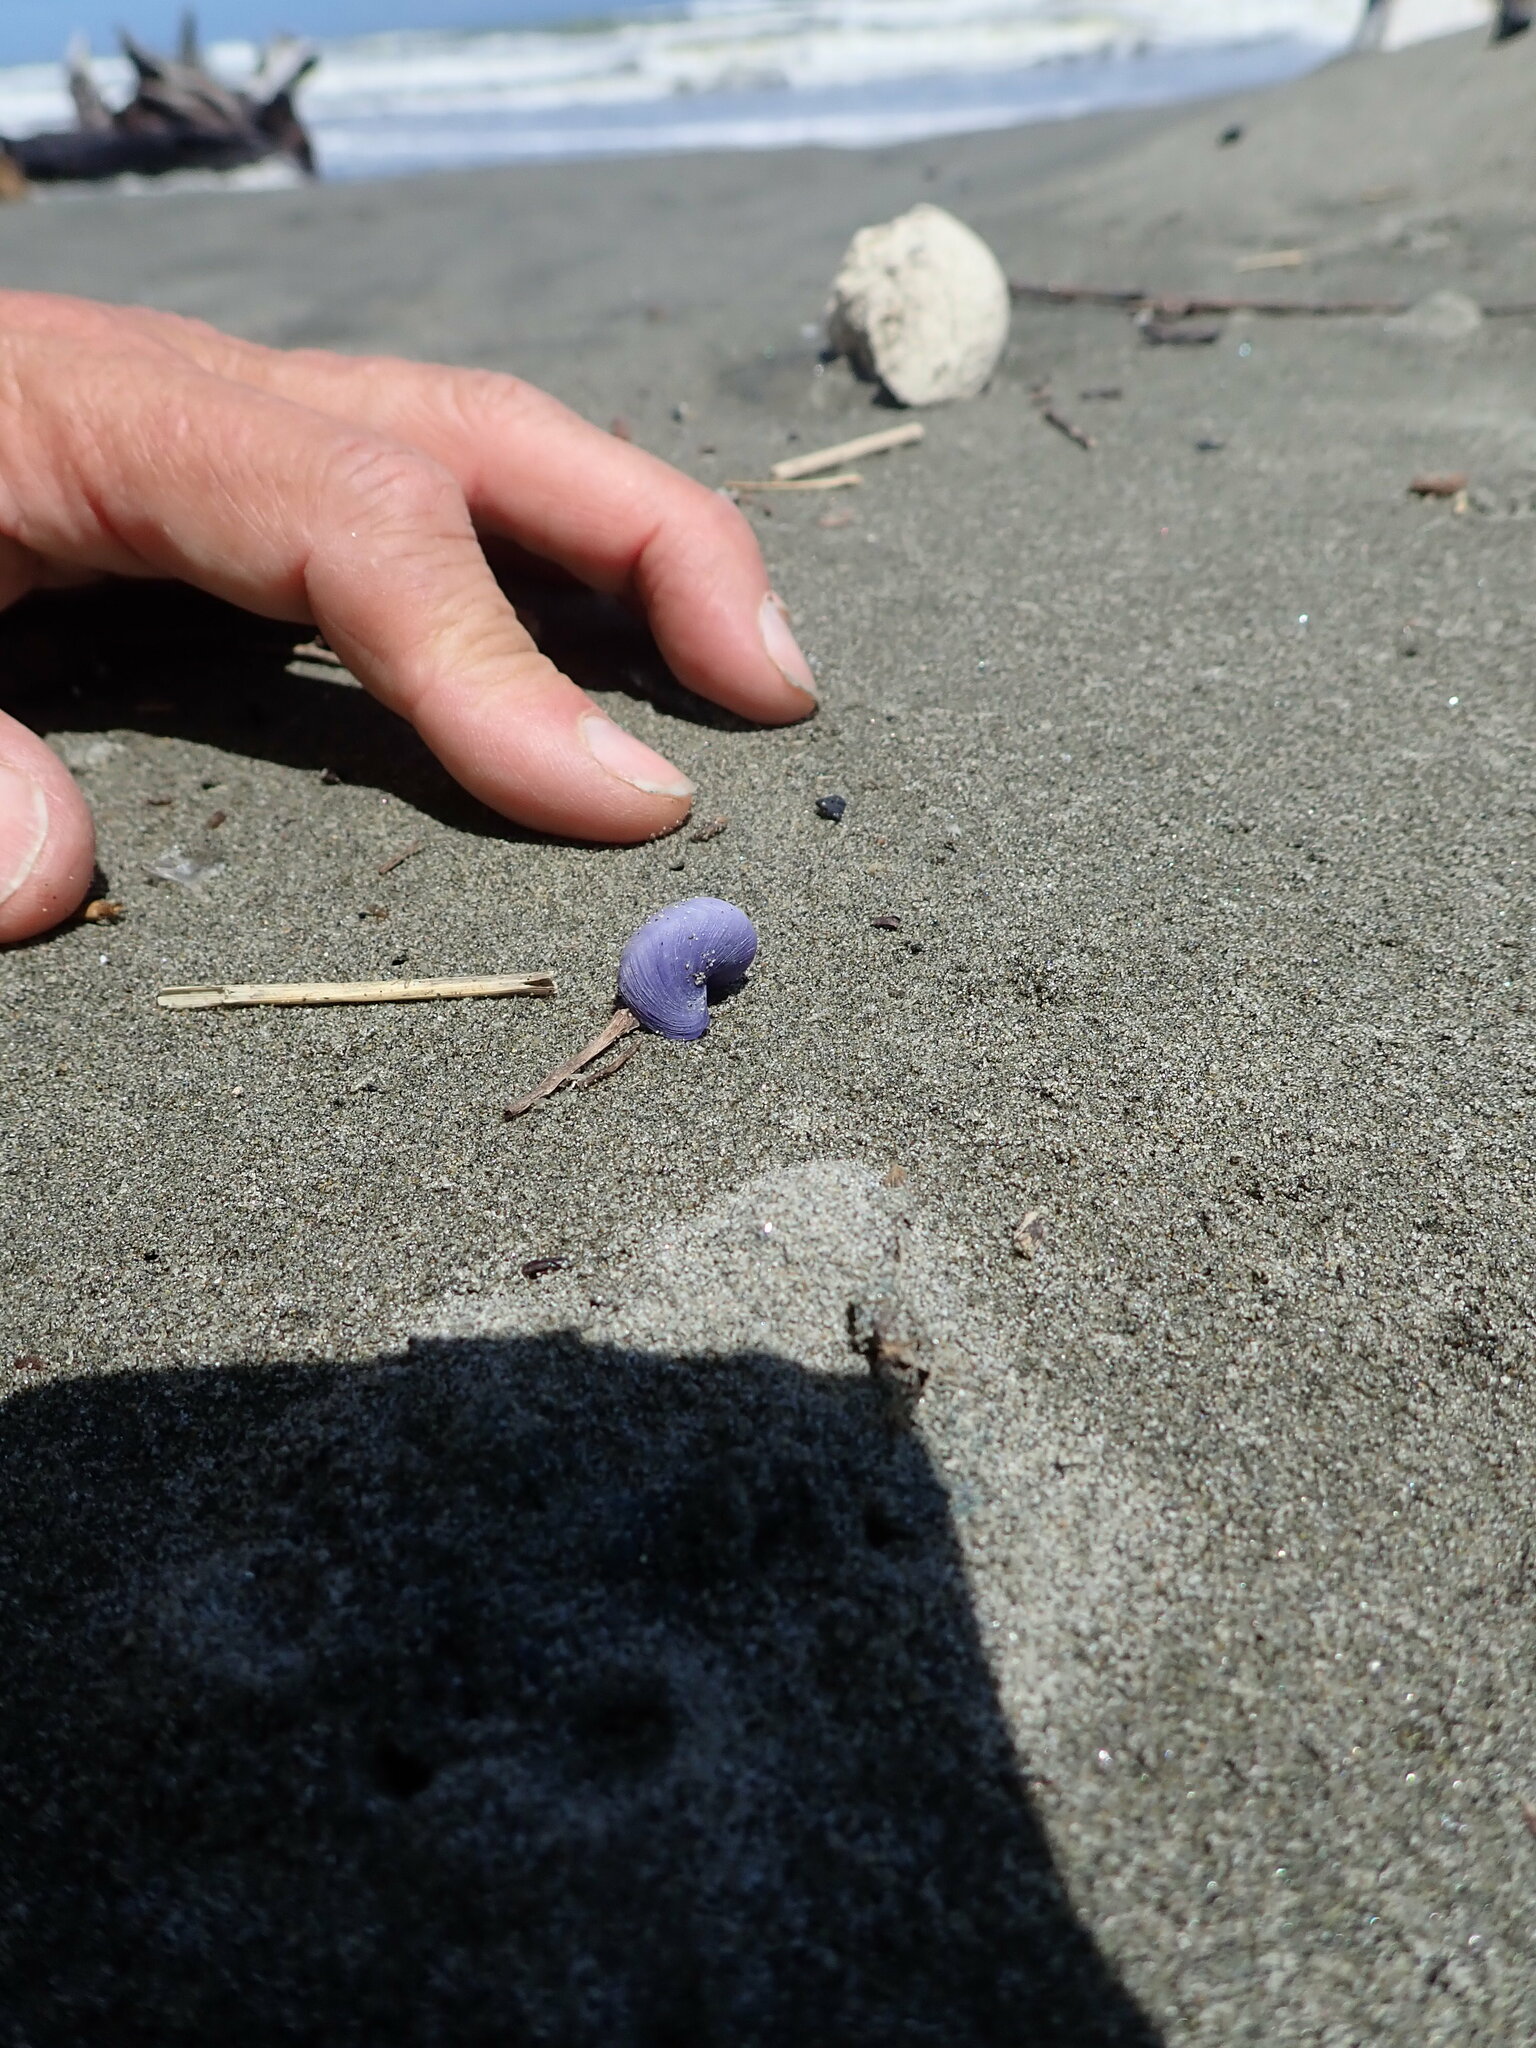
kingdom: Animalia
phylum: Mollusca
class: Gastropoda
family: Epitoniidae
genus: Janthina
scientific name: Janthina exigua
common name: Dwarf janthina
